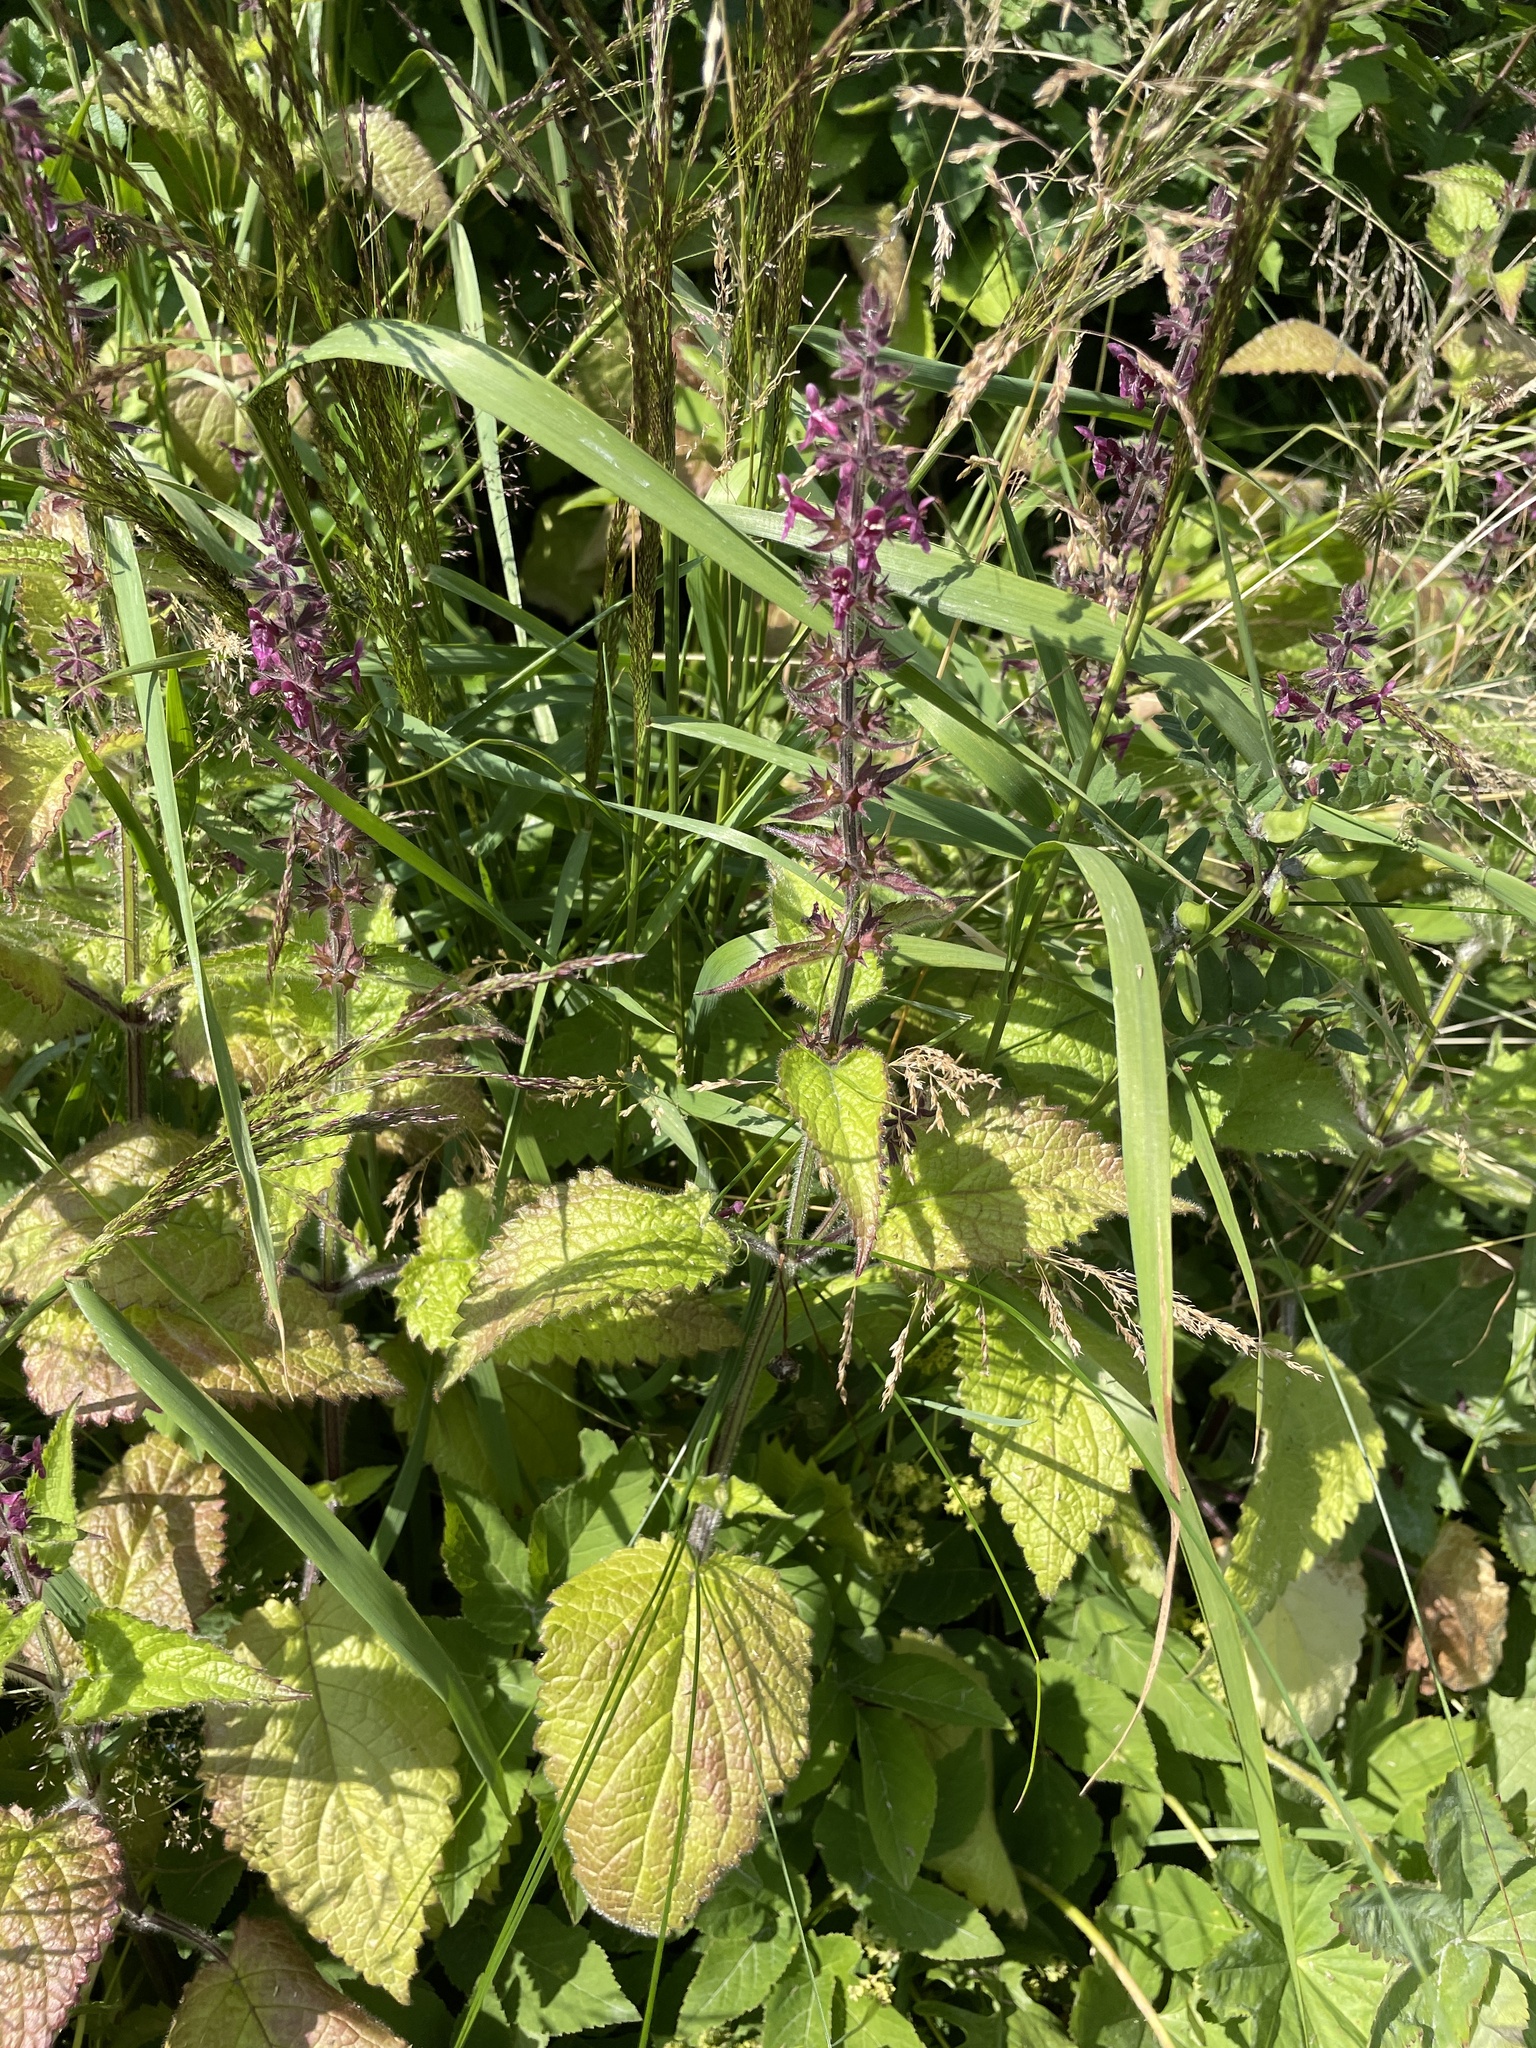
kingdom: Plantae
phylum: Tracheophyta
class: Magnoliopsida
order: Lamiales
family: Lamiaceae
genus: Stachys
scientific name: Stachys sylvatica
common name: Hedge woundwort
